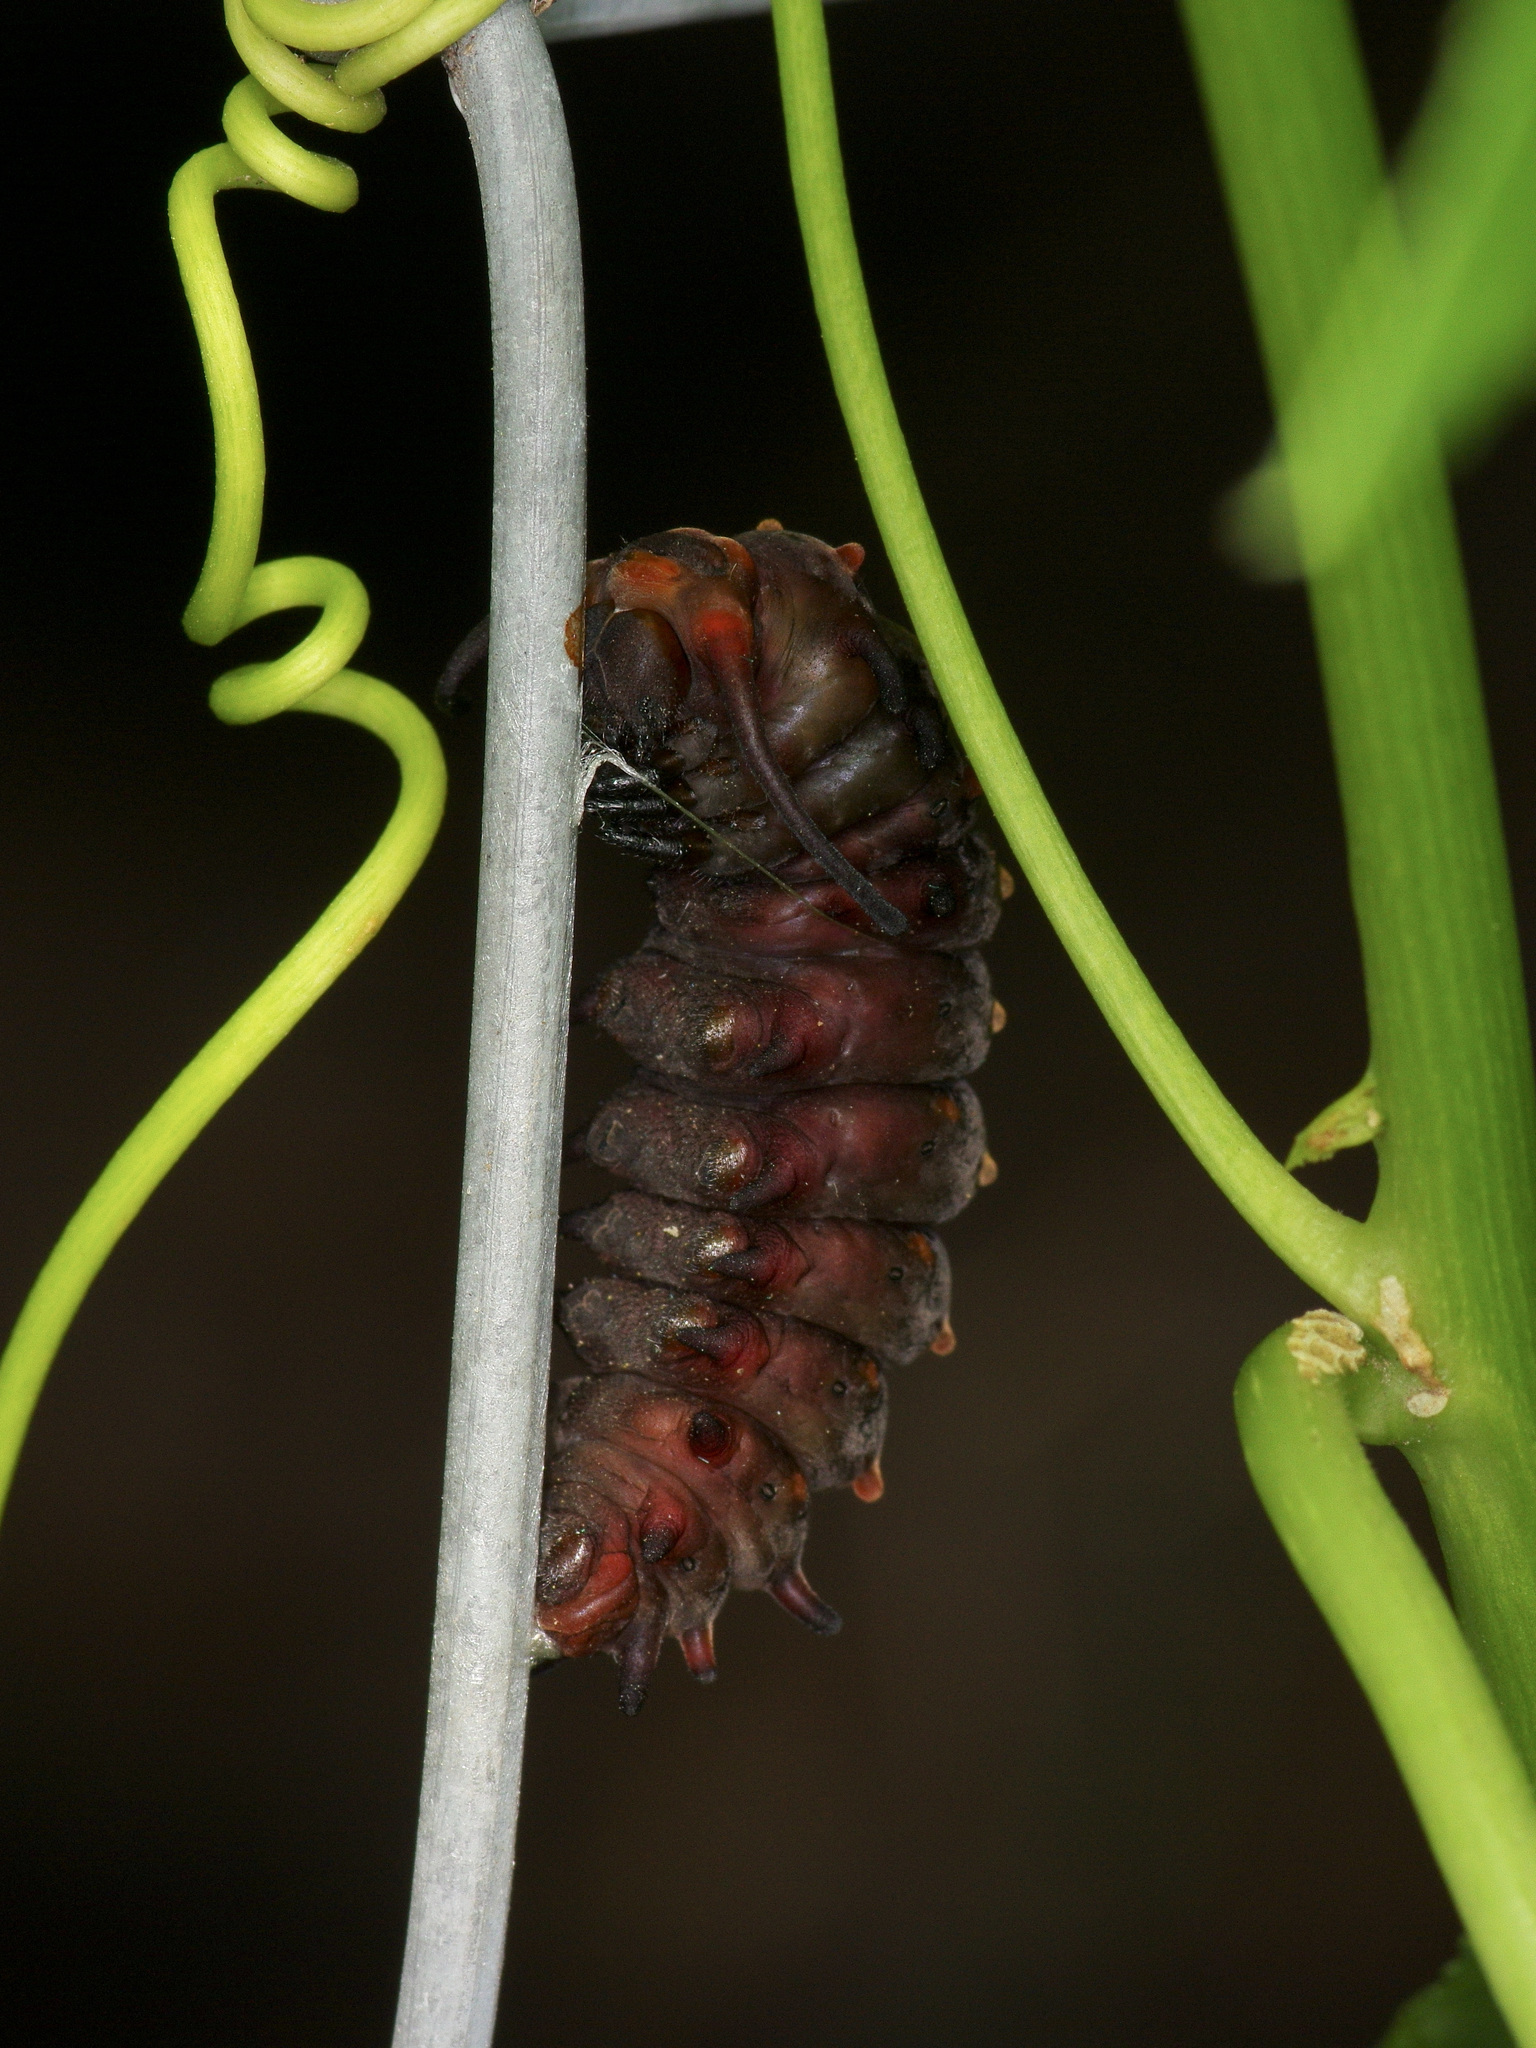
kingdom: Animalia
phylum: Arthropoda
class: Insecta
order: Lepidoptera
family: Papilionidae
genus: Battus
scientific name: Battus philenor
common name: Pipevine swallowtail
